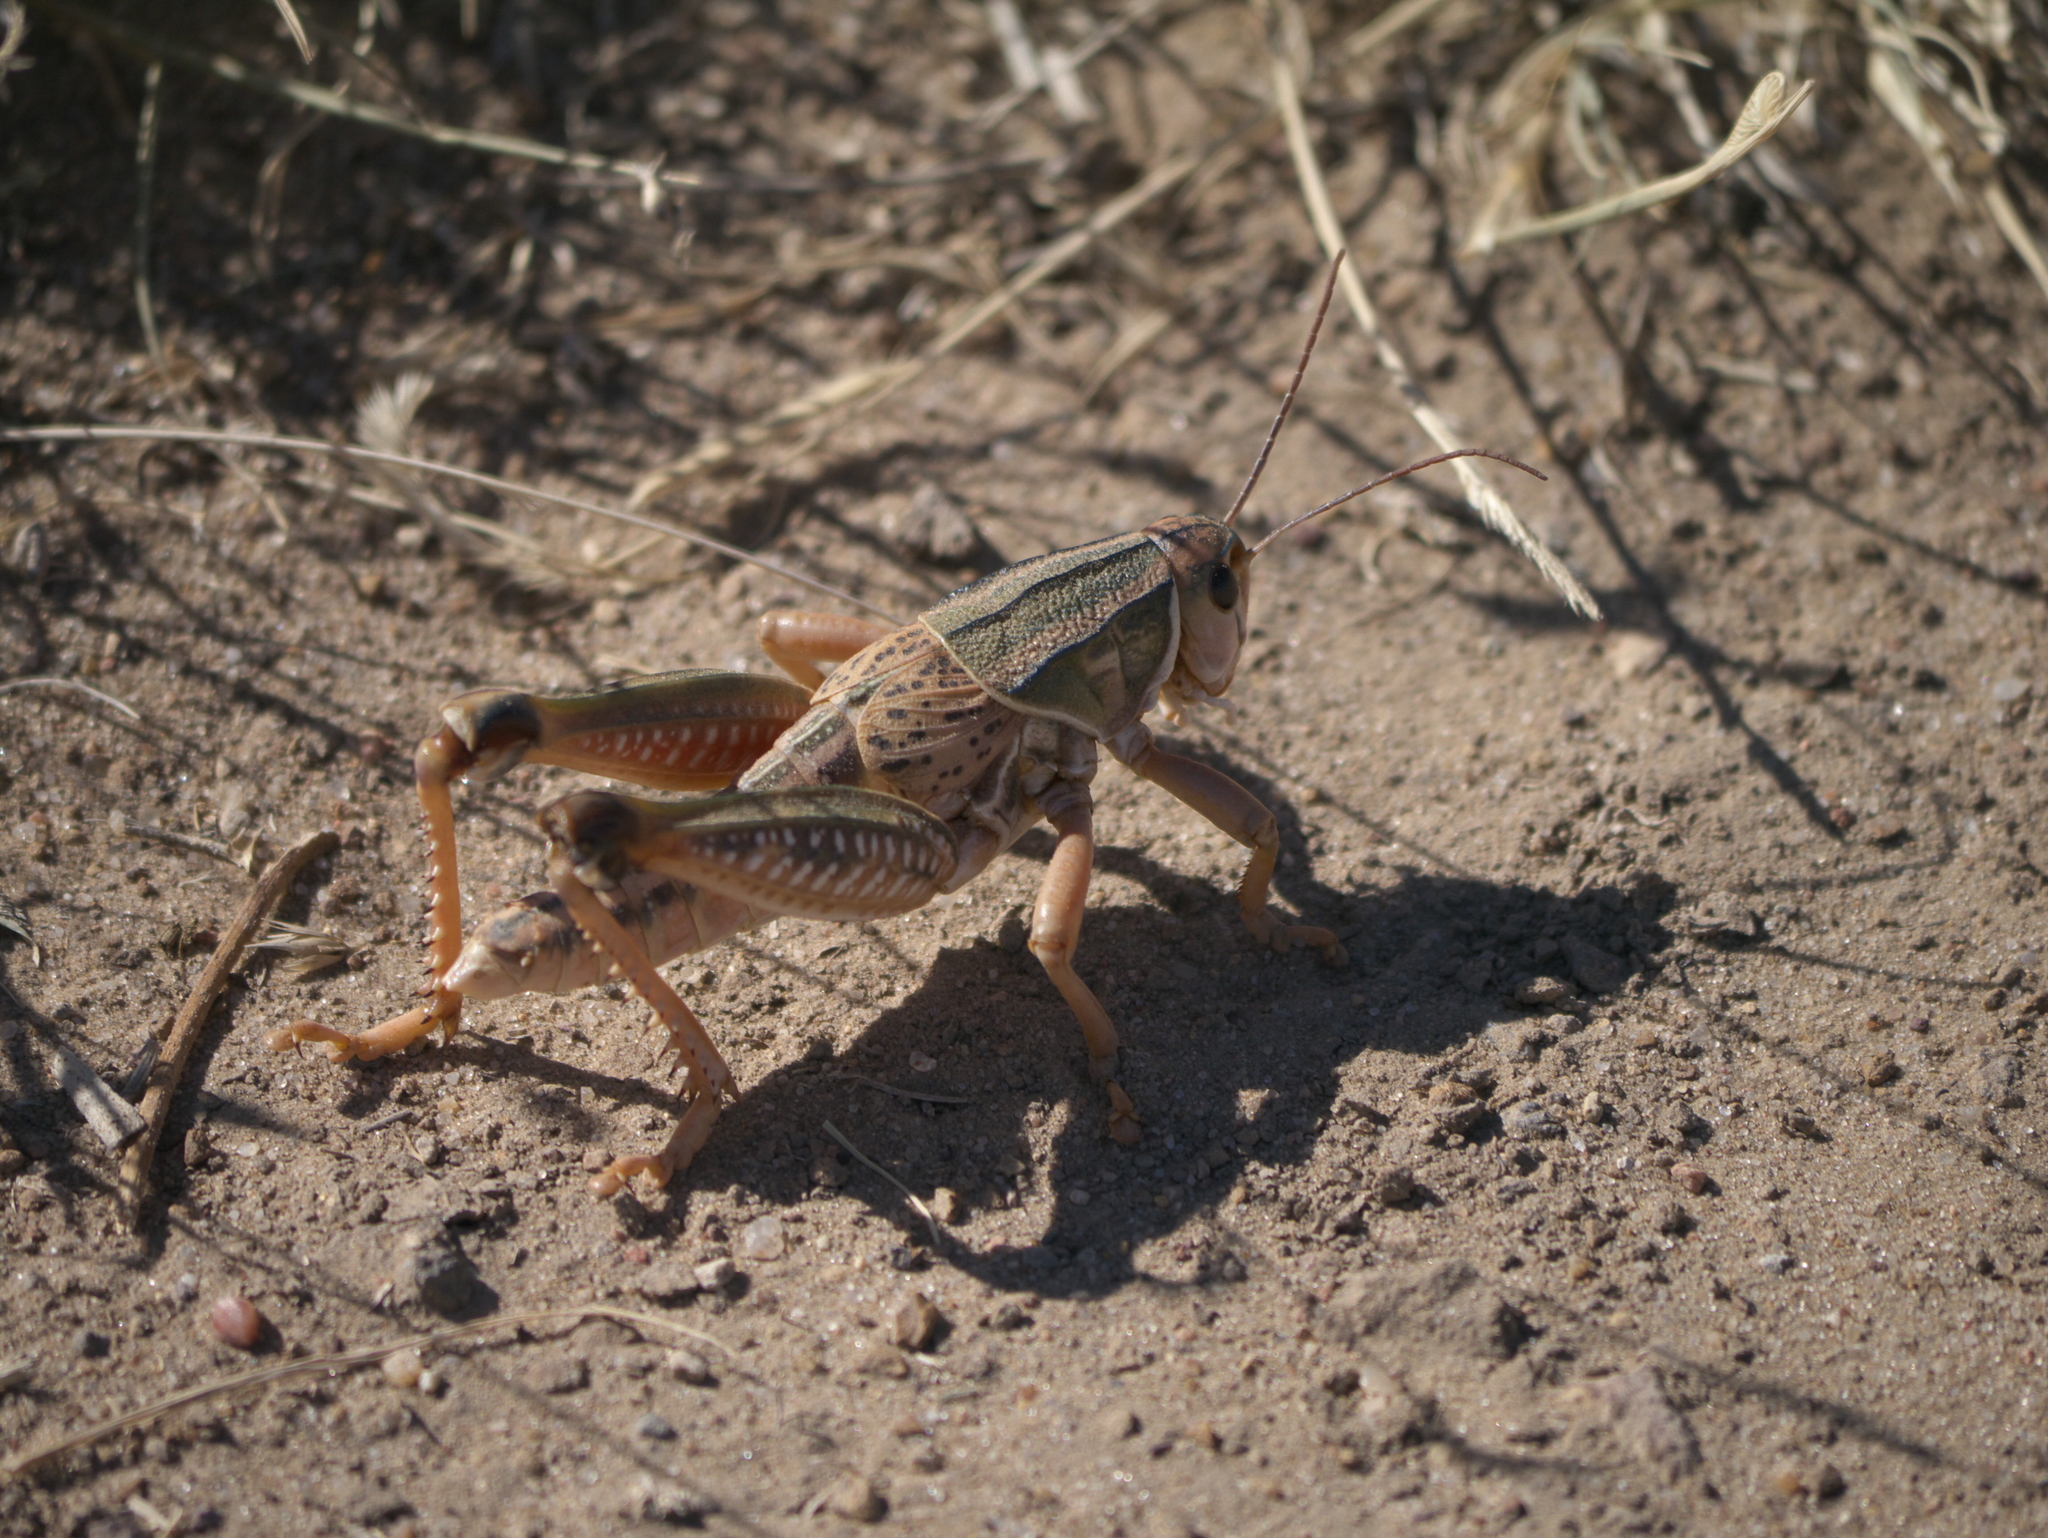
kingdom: Animalia
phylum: Arthropoda
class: Insecta
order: Orthoptera
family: Romaleidae
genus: Brachystola
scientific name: Brachystola magna
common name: Plains lubber grasshopper
